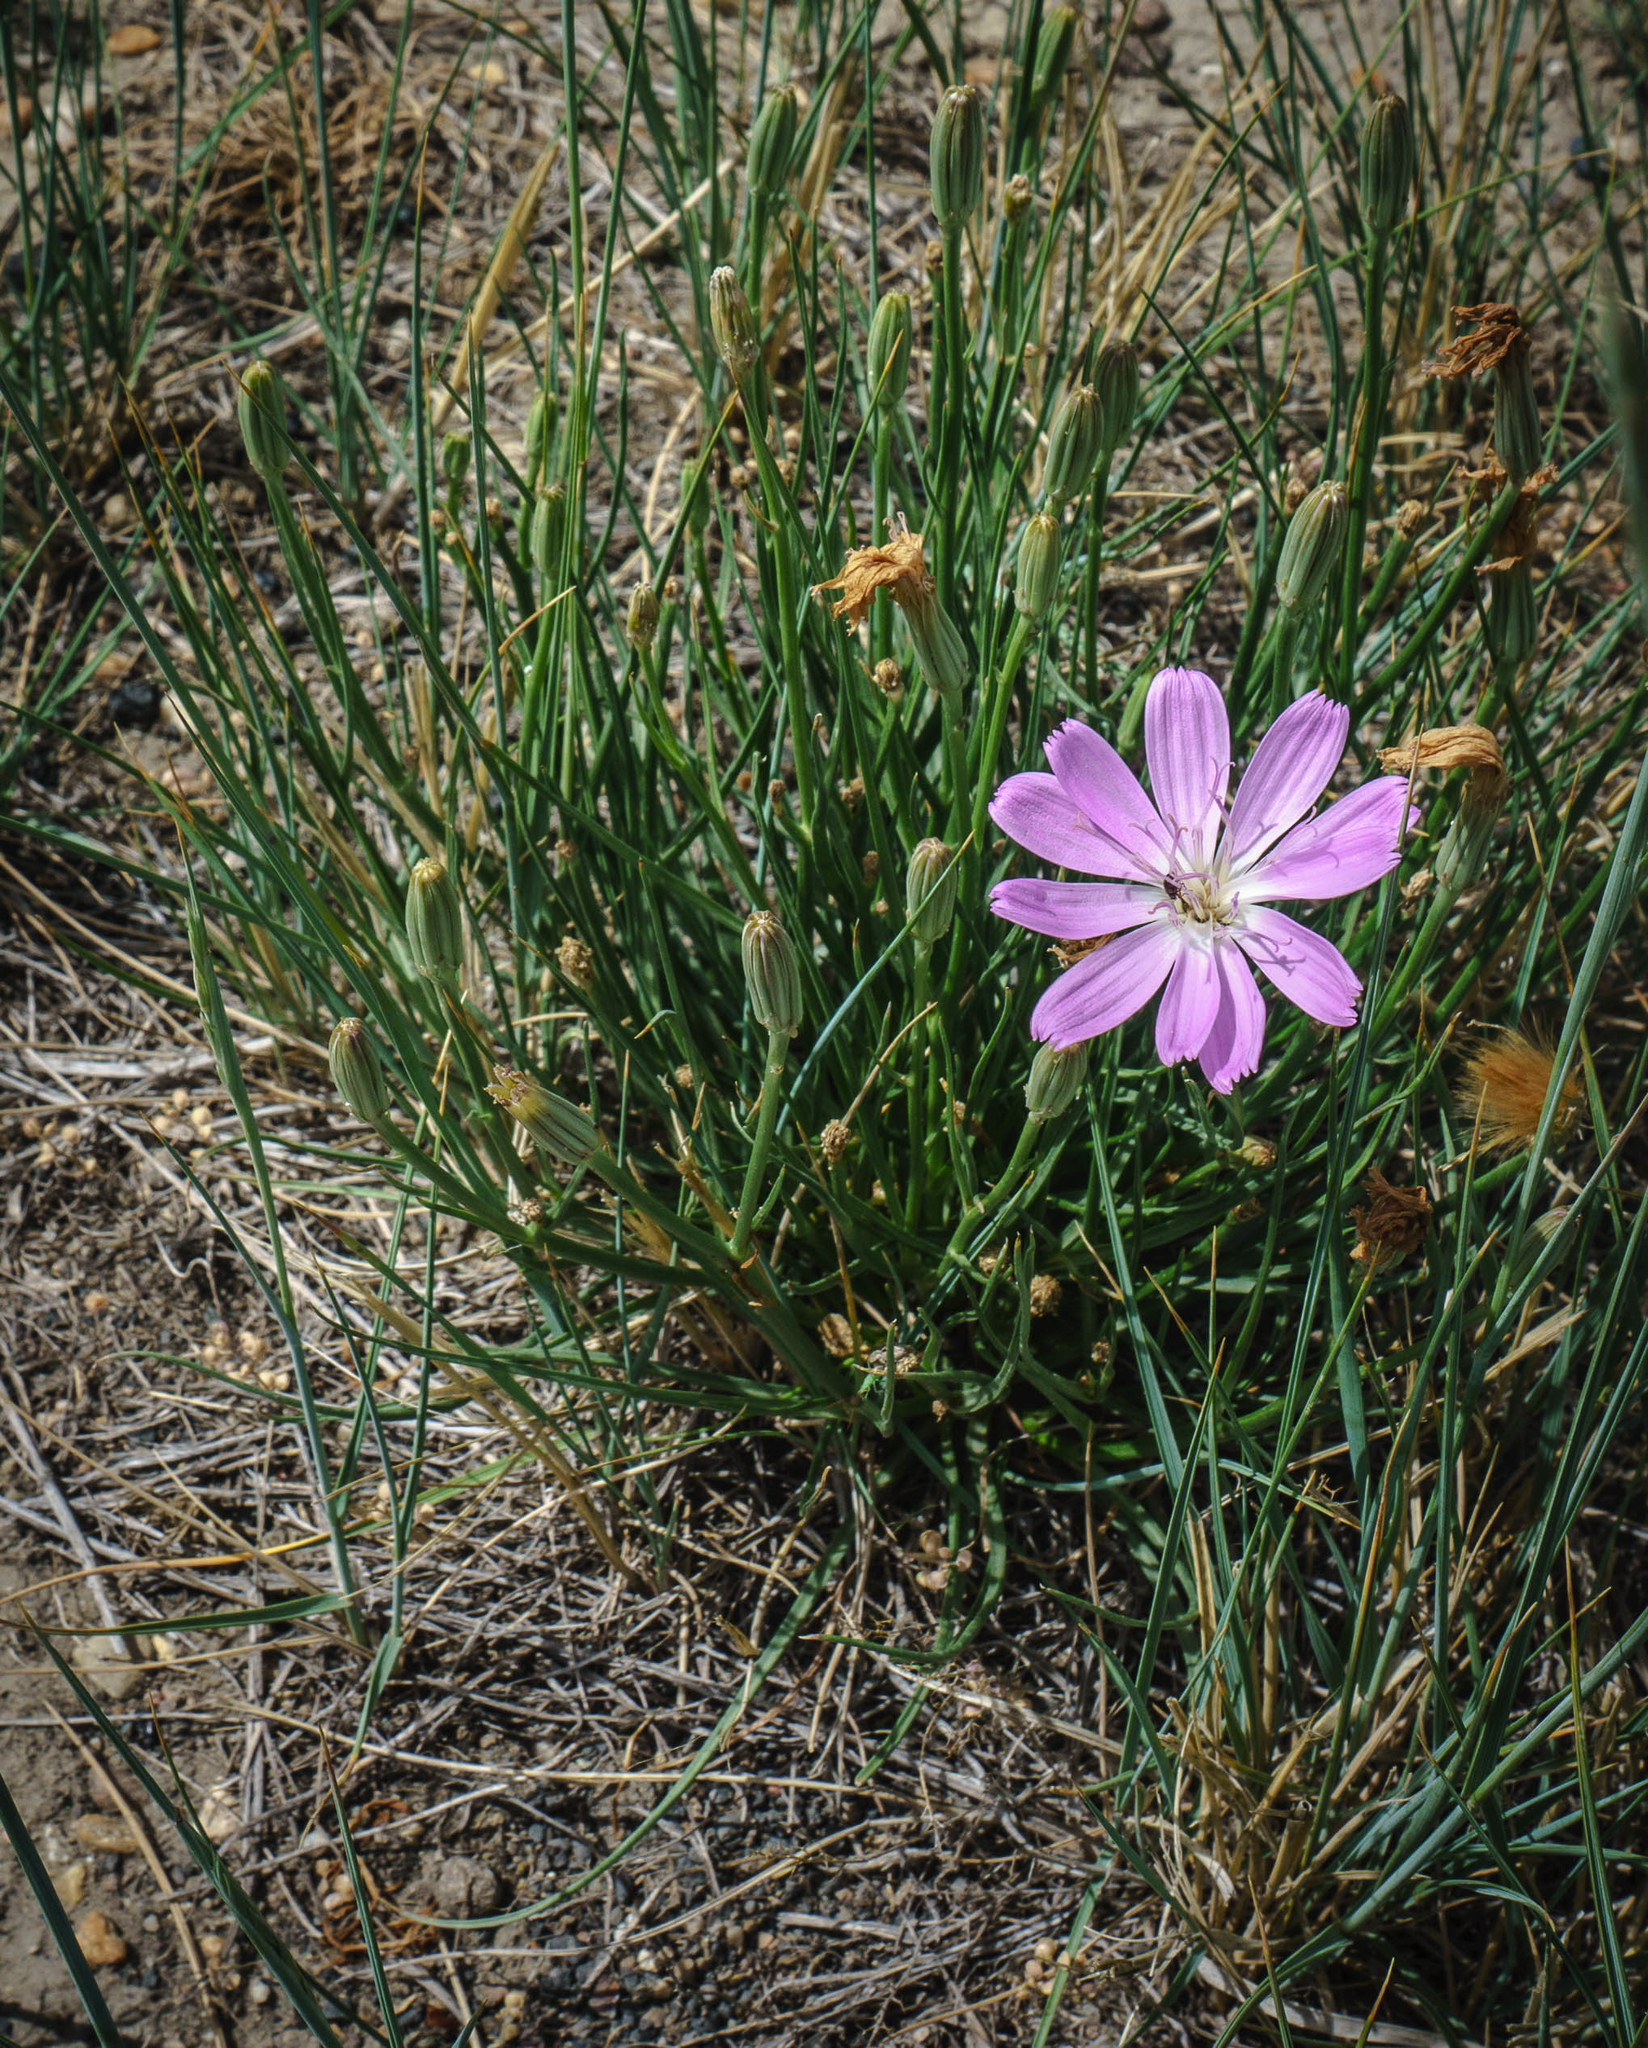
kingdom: Plantae
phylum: Tracheophyta
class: Magnoliopsida
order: Asterales
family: Asteraceae
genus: Lygodesmia
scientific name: Lygodesmia grandiflora
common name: Showy rush-pink
